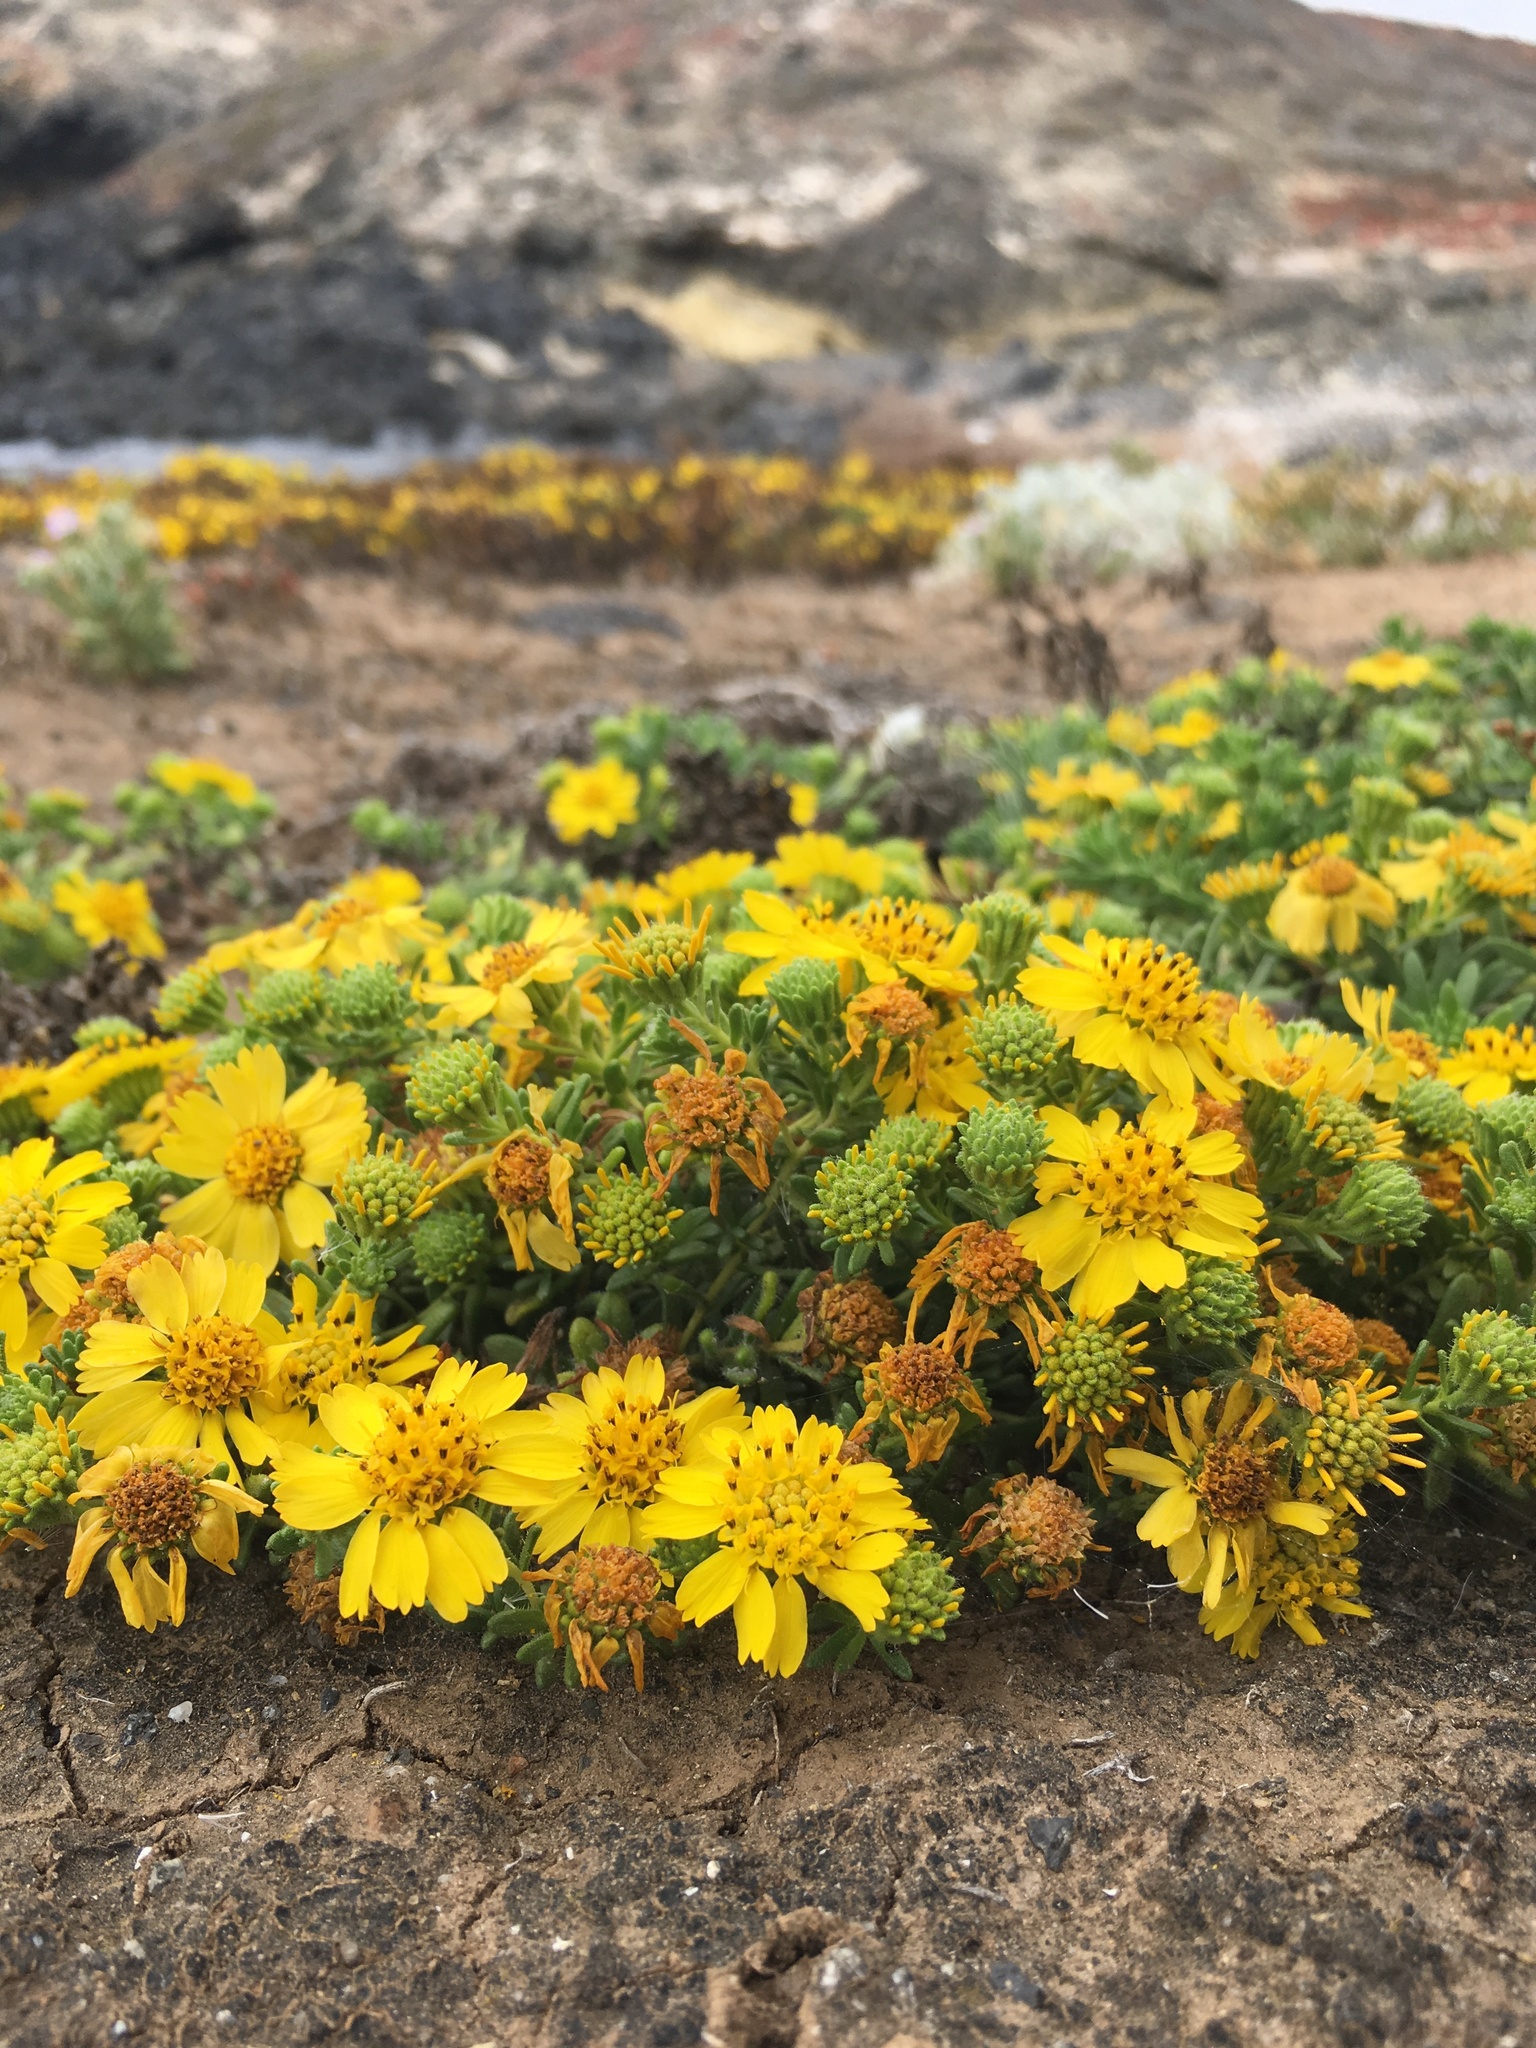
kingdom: Plantae
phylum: Tracheophyta
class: Magnoliopsida
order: Asterales
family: Asteraceae
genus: Deinandra
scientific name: Deinandra clementina
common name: Island tarplant
